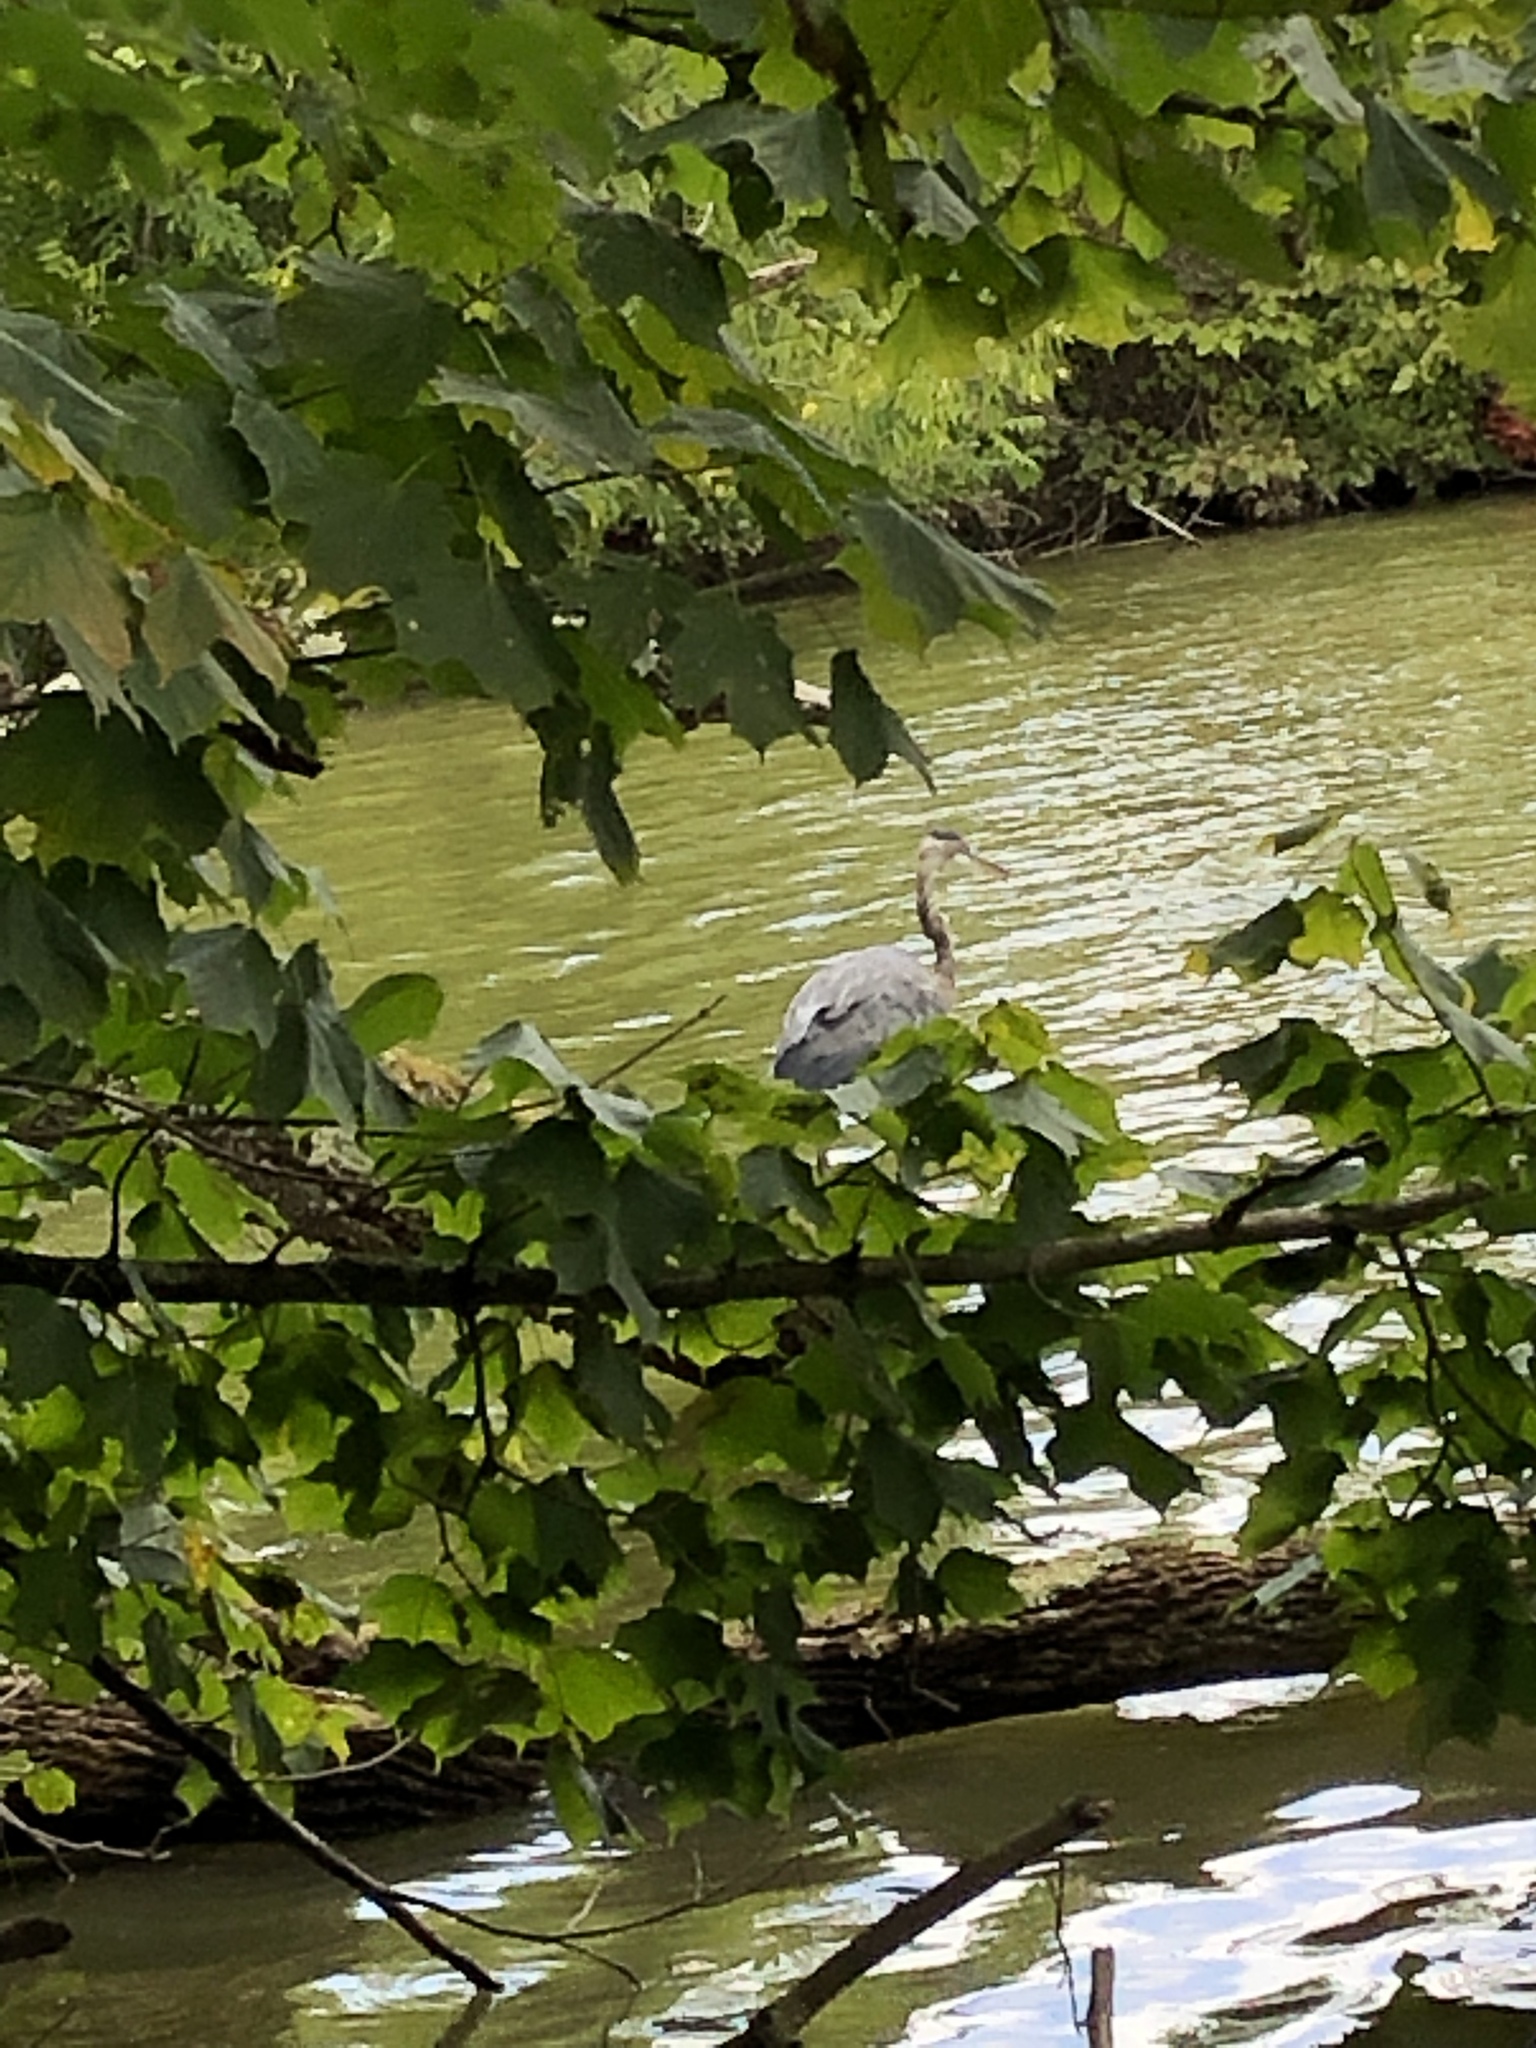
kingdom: Animalia
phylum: Chordata
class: Aves
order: Pelecaniformes
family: Ardeidae
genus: Ardea
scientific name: Ardea herodias
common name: Great blue heron
